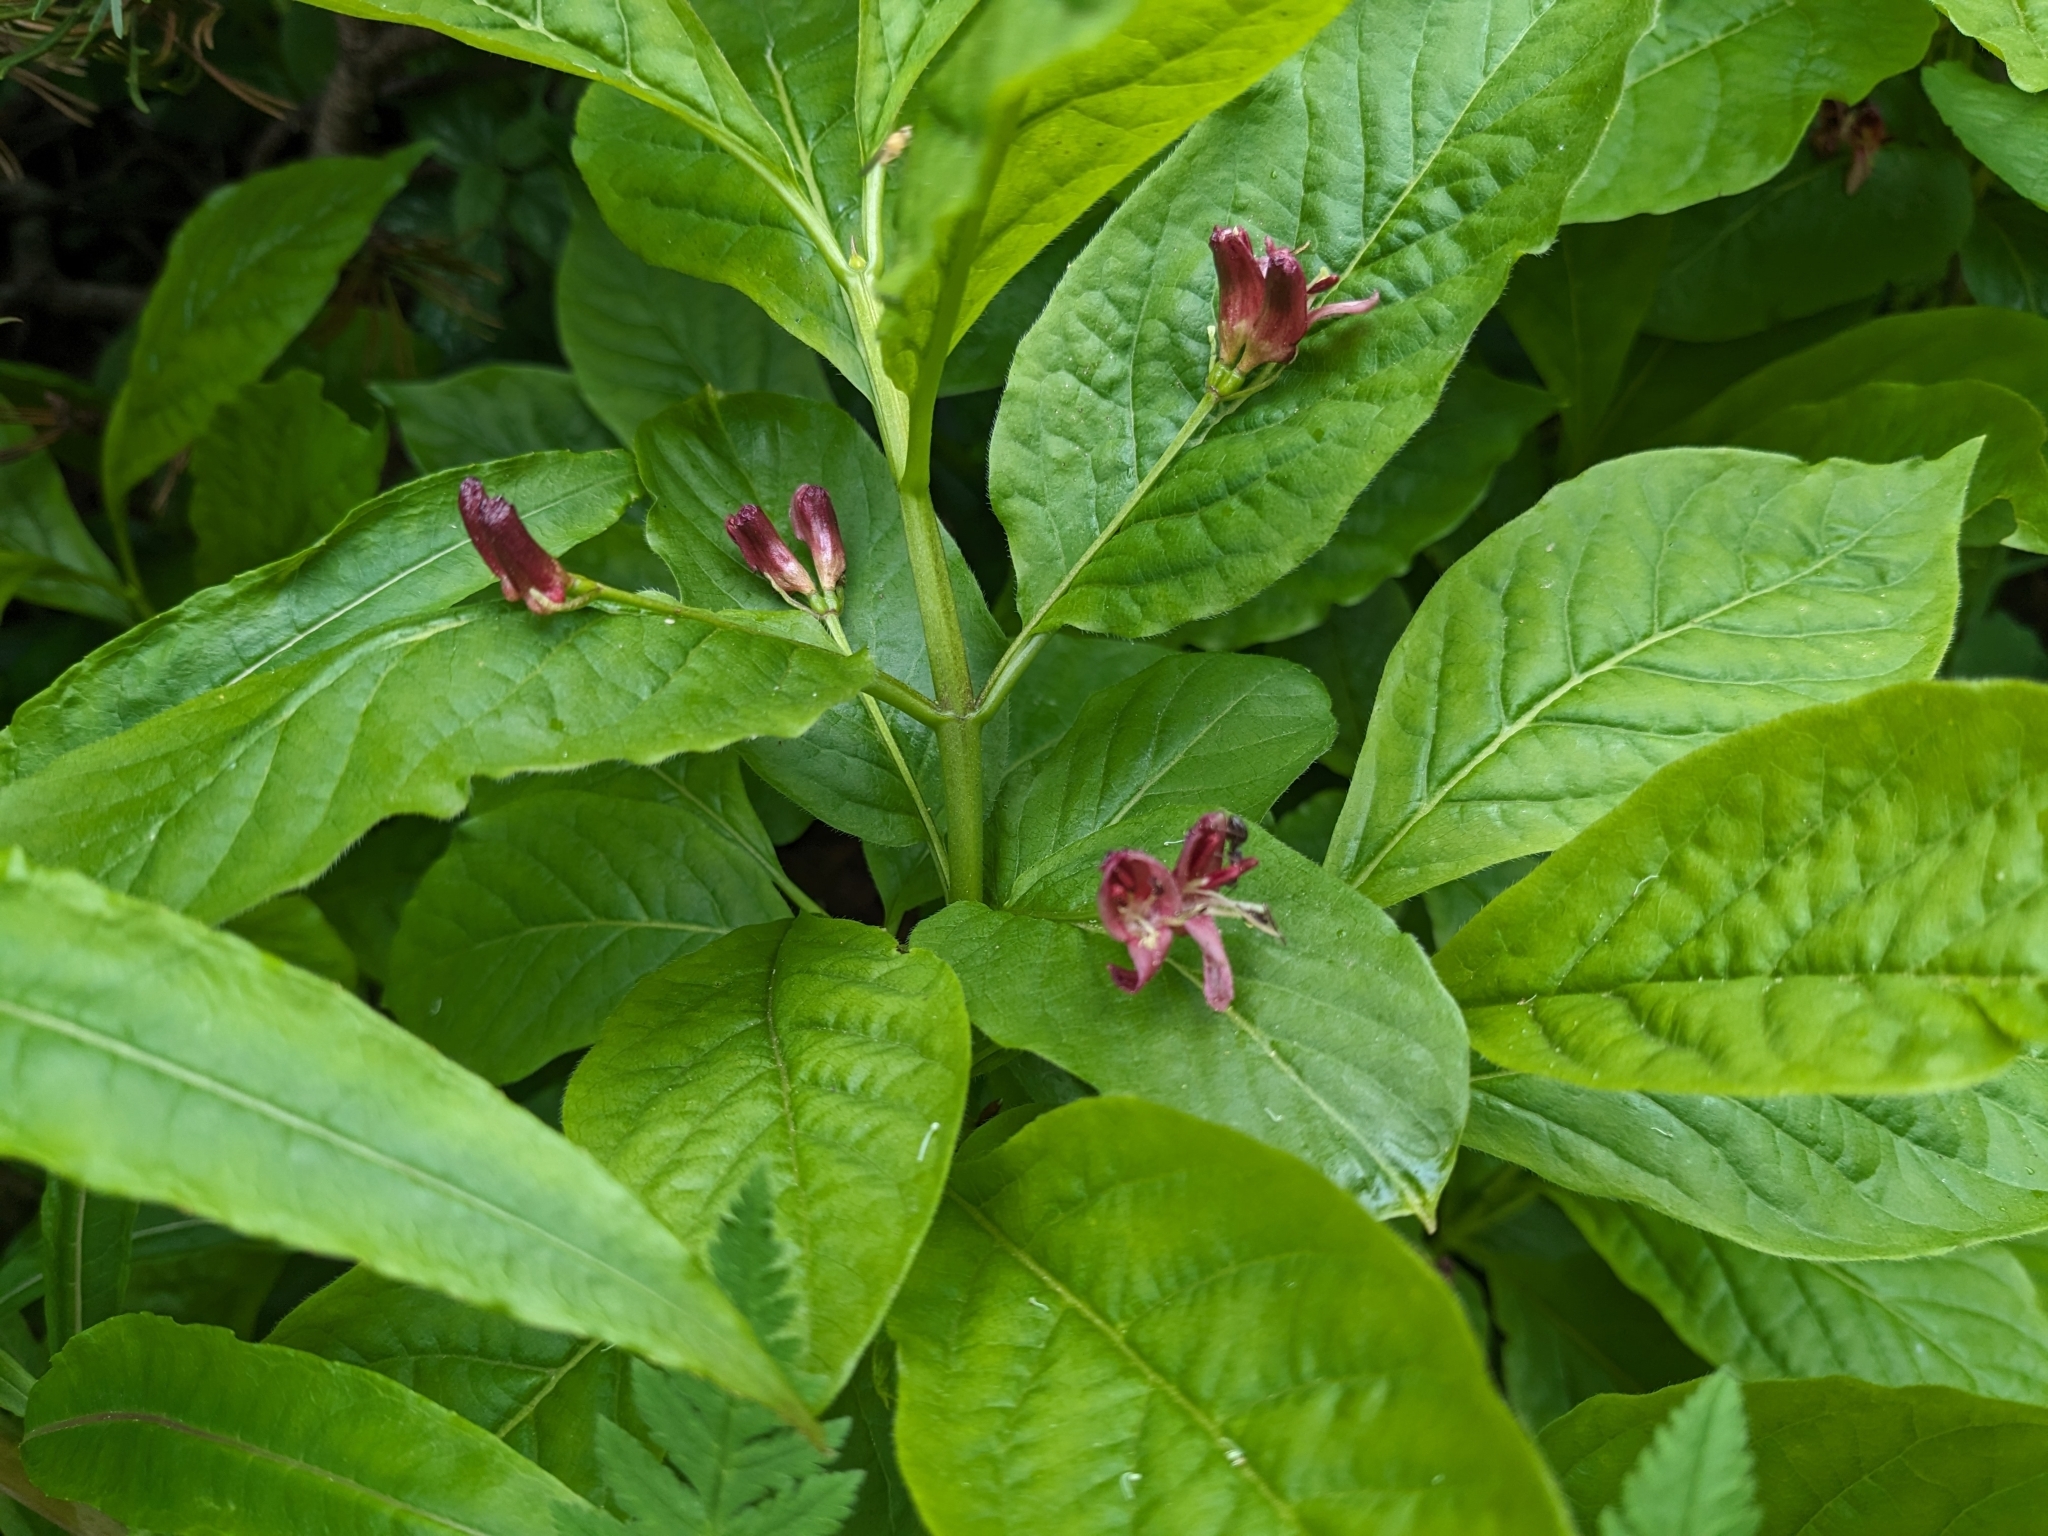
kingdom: Plantae
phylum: Tracheophyta
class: Magnoliopsida
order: Dipsacales
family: Caprifoliaceae
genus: Lonicera
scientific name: Lonicera alpigena
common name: Alpine honeysuckle
